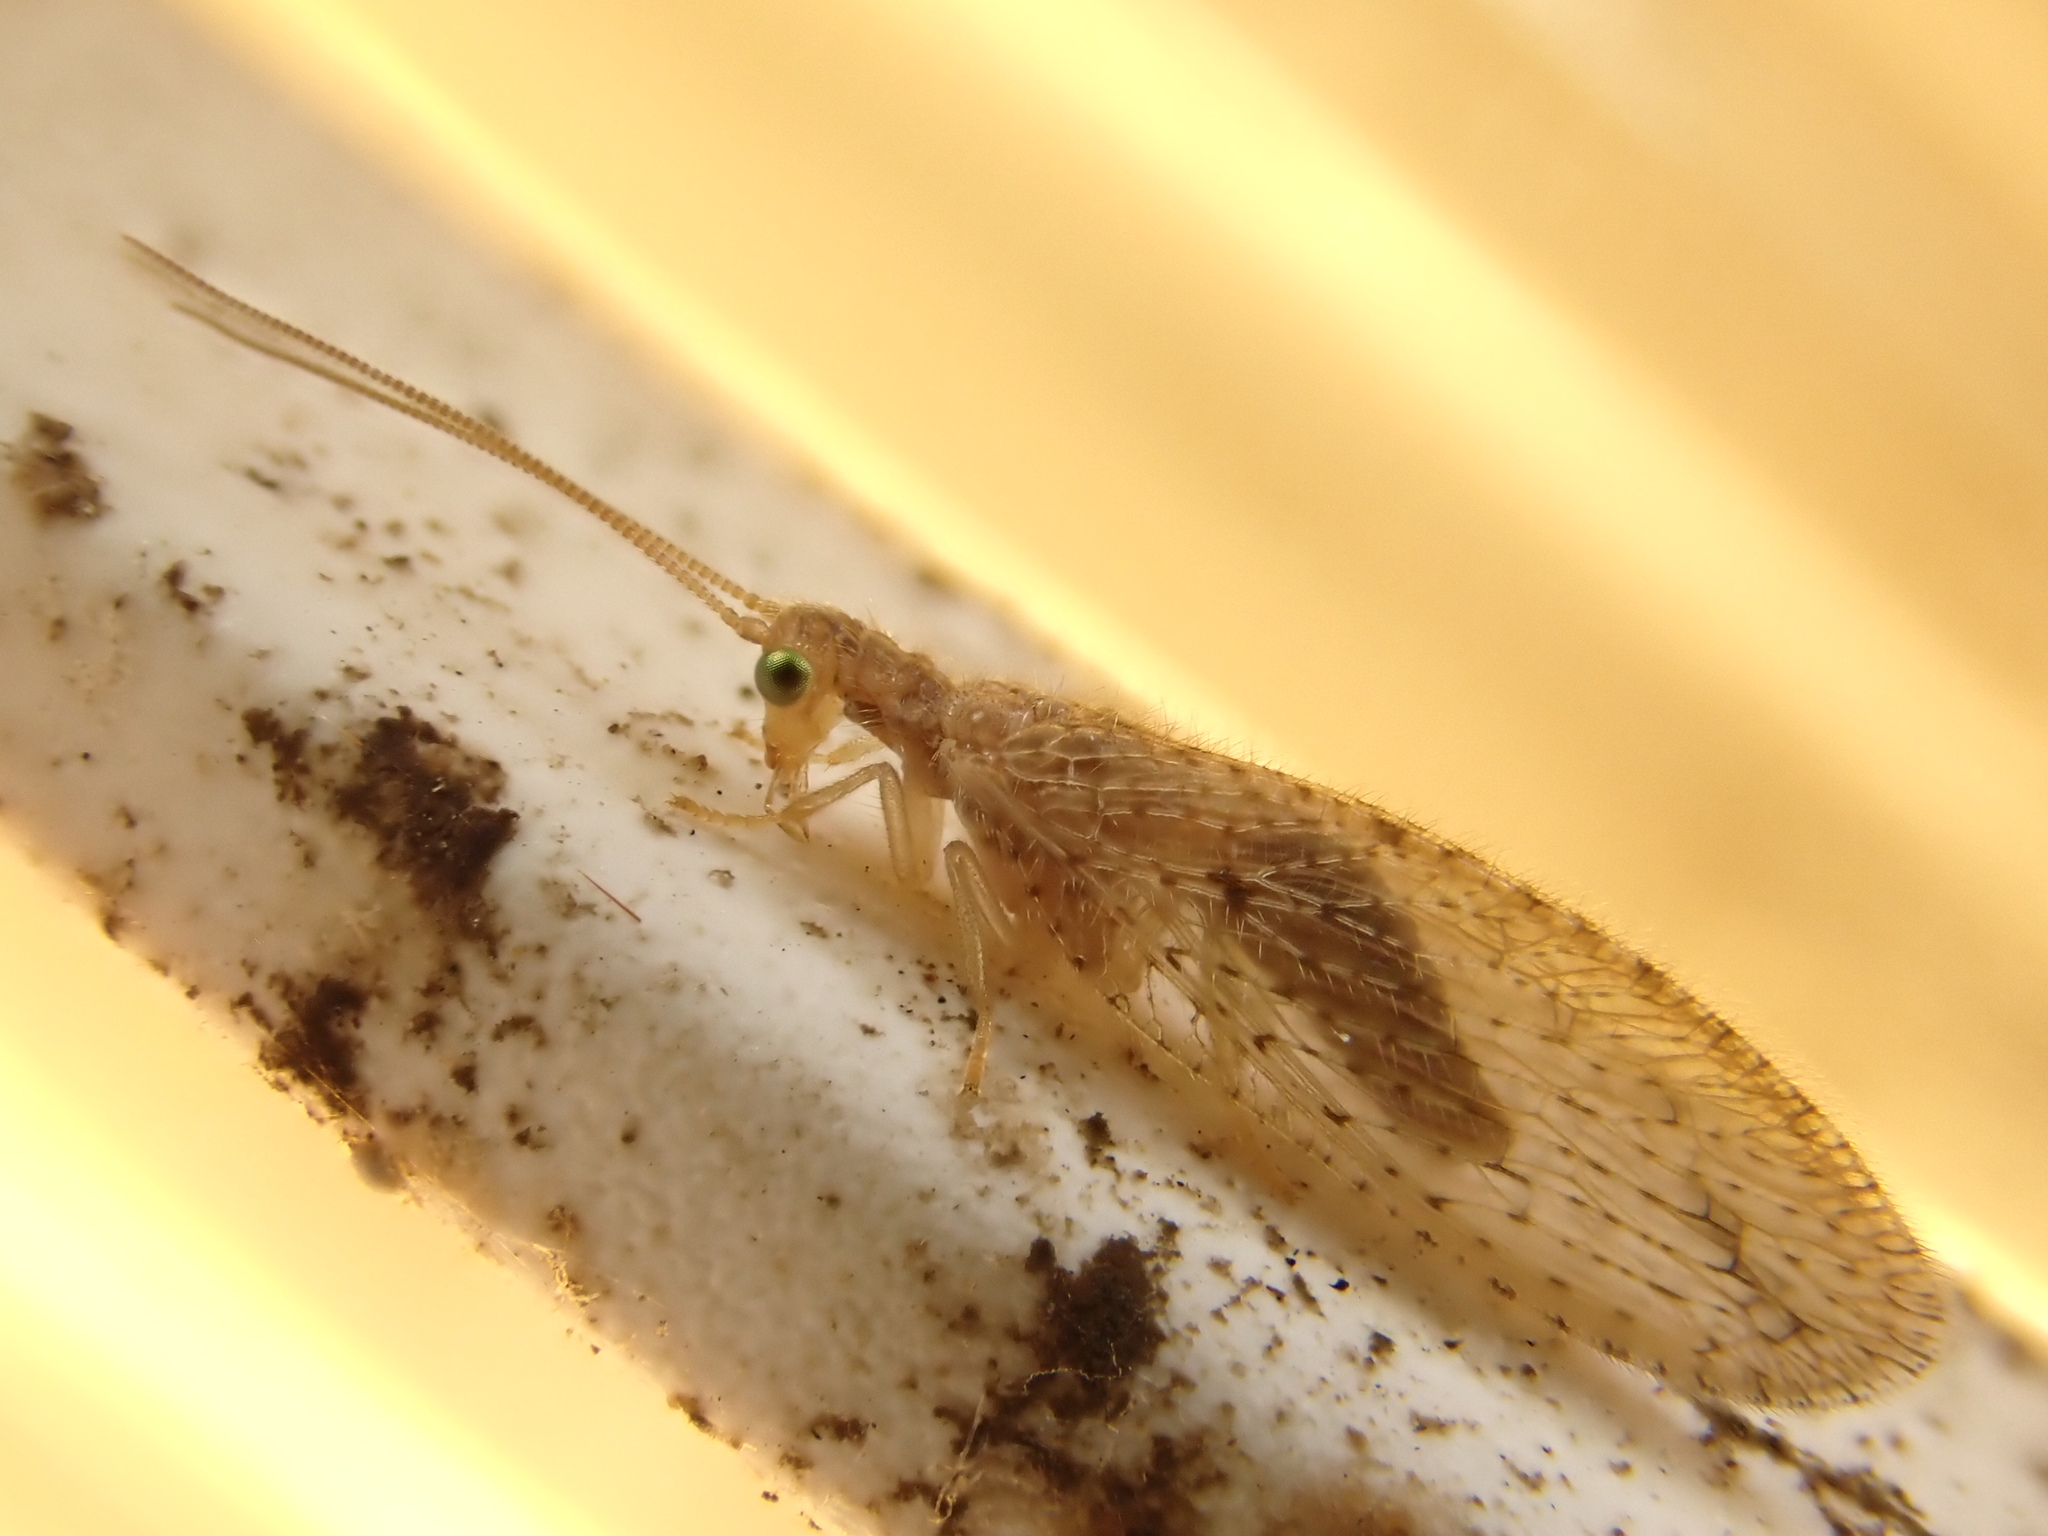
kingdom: Animalia
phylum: Arthropoda
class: Insecta
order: Neuroptera
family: Hemerobiidae
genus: Micromus
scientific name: Micromus tasmaniae
